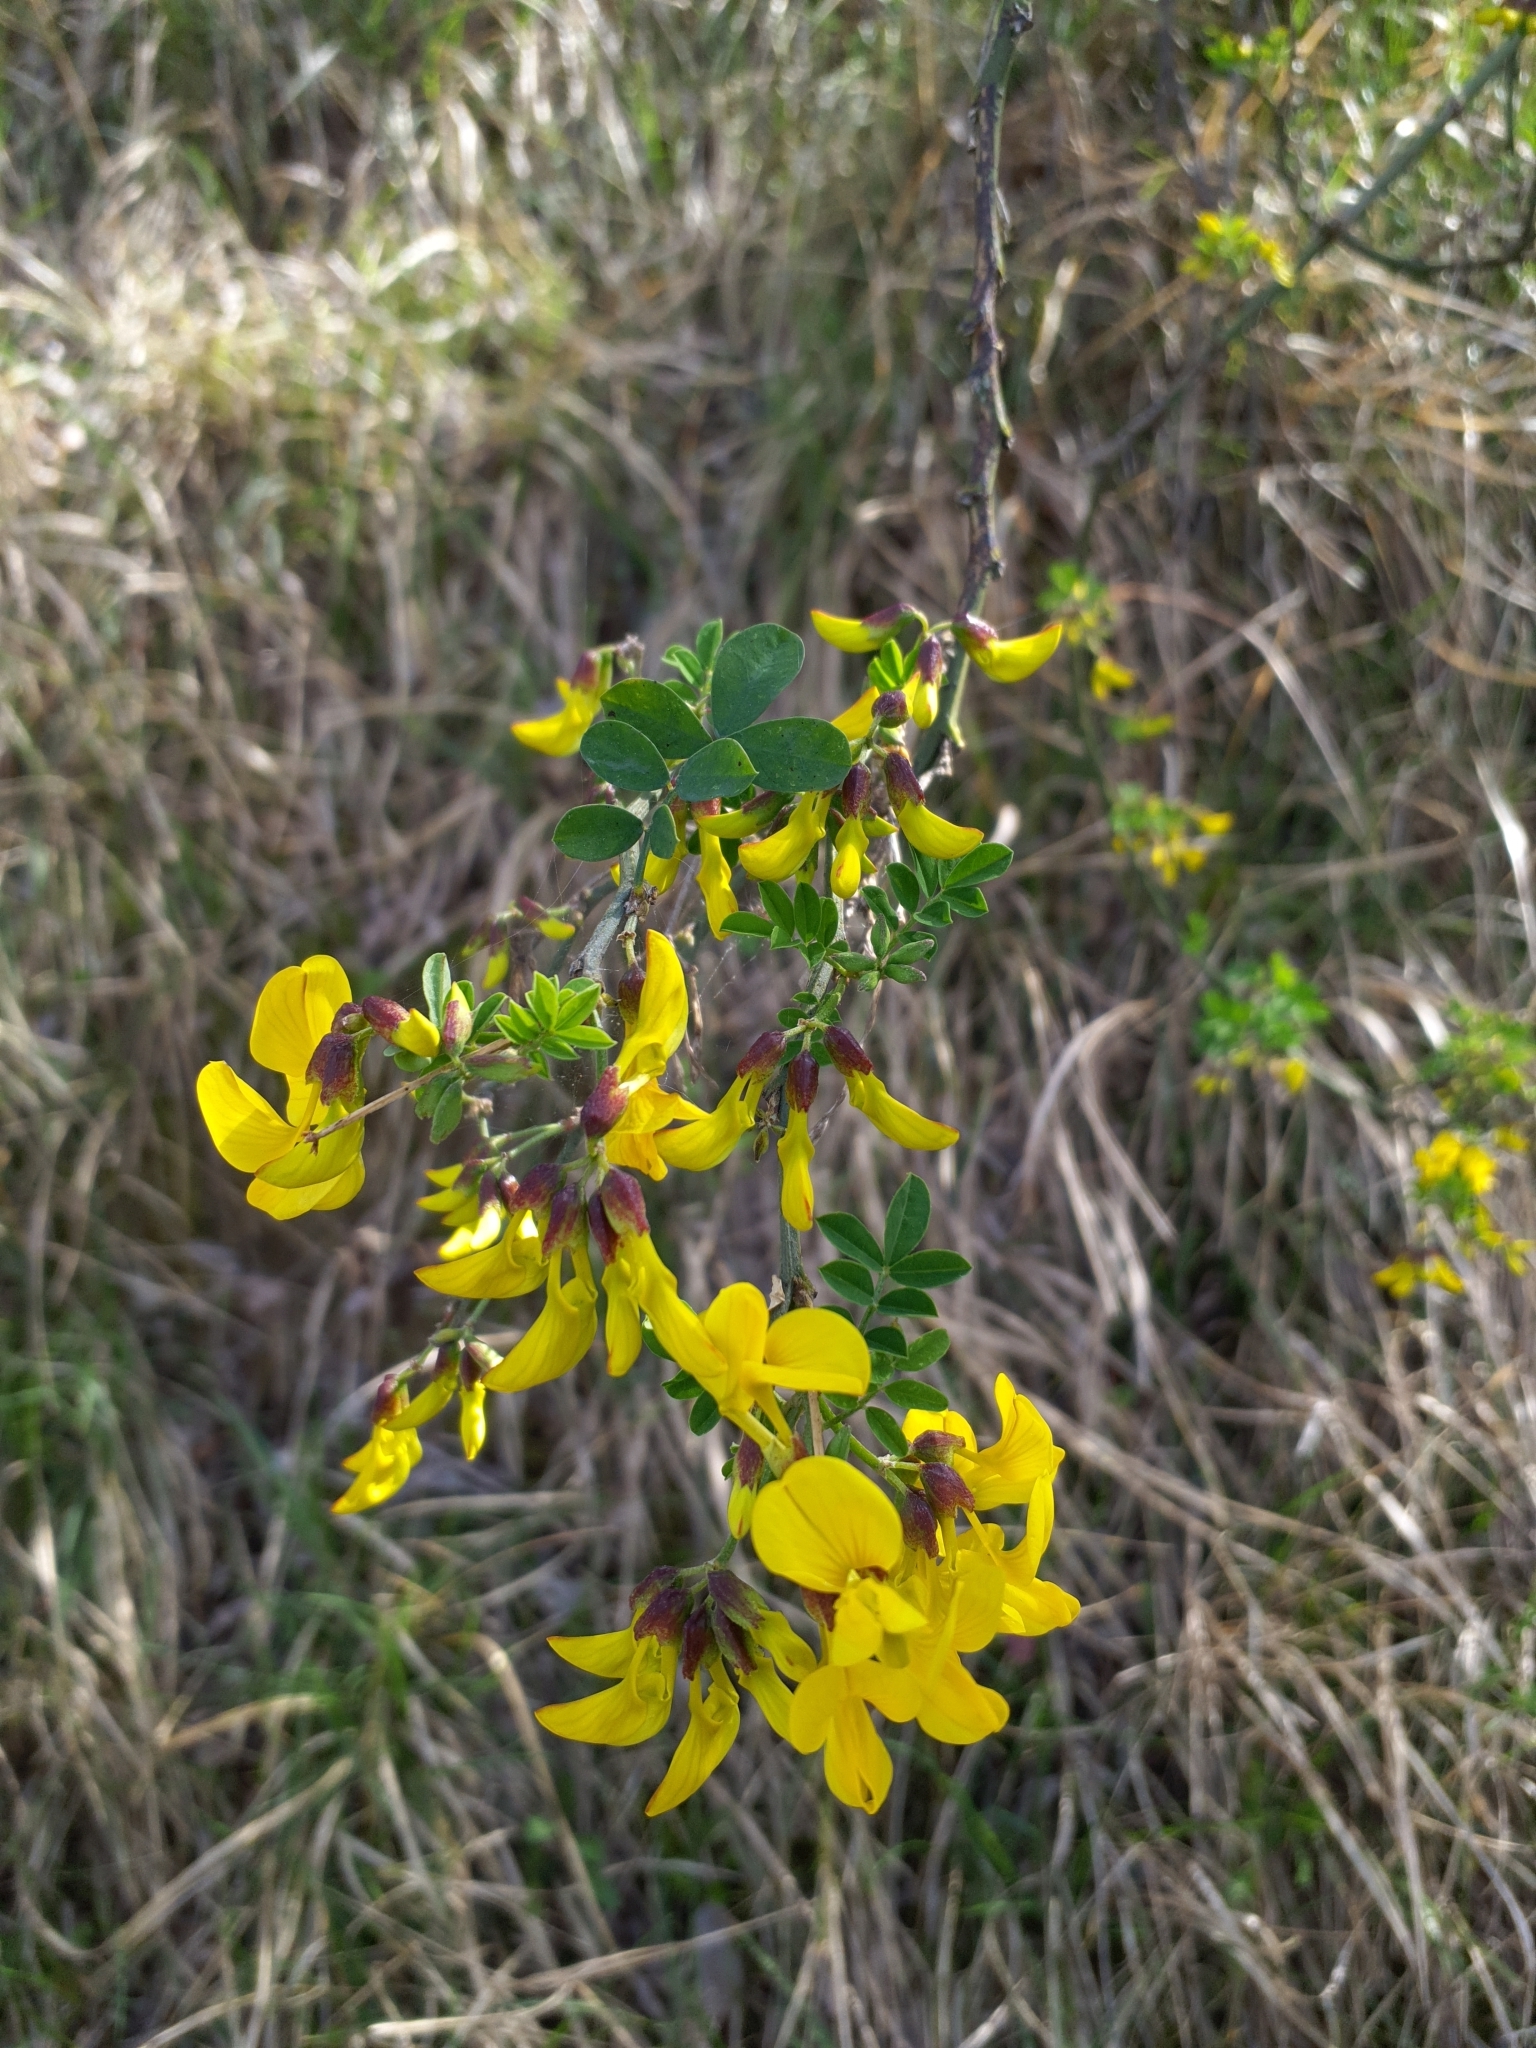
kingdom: Plantae
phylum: Tracheophyta
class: Magnoliopsida
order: Fabales
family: Fabaceae
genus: Hippocrepis
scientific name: Hippocrepis emerus
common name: Scorpion senna
